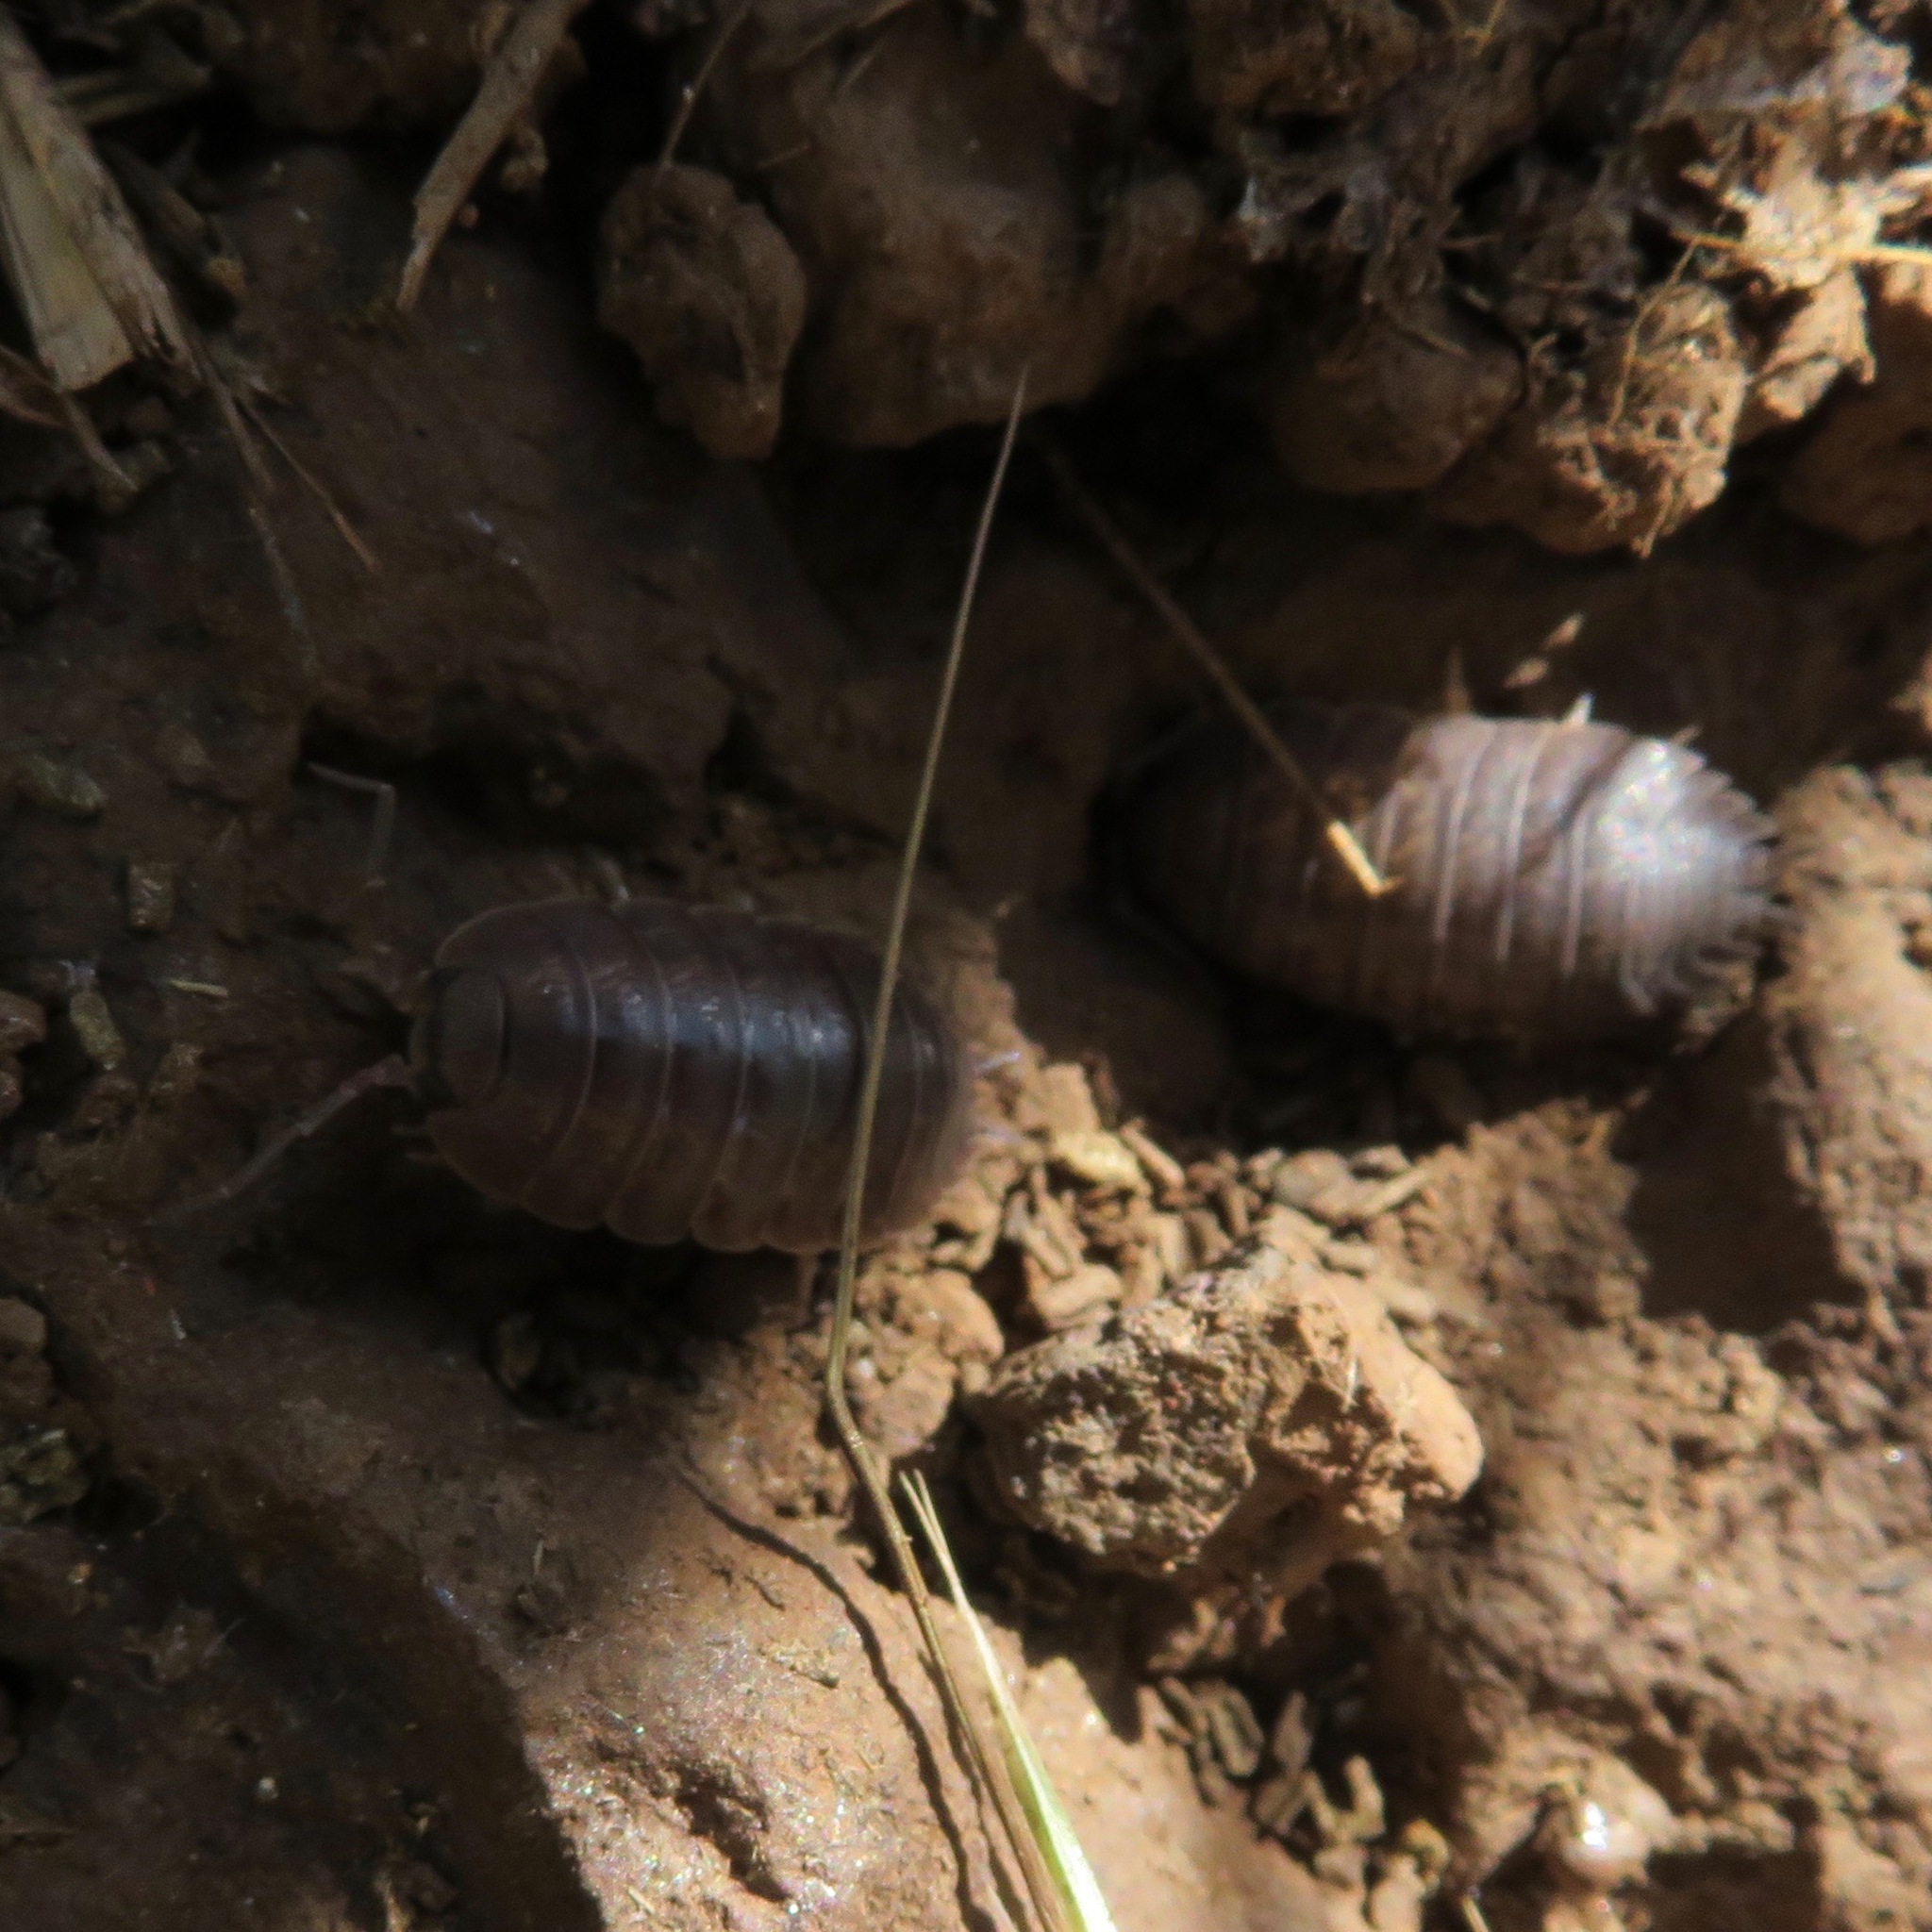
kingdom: Animalia
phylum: Arthropoda
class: Malacostraca
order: Isopoda
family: Porcellionidae
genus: Porcellio
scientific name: Porcellio laevis
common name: Swift woodlouse
